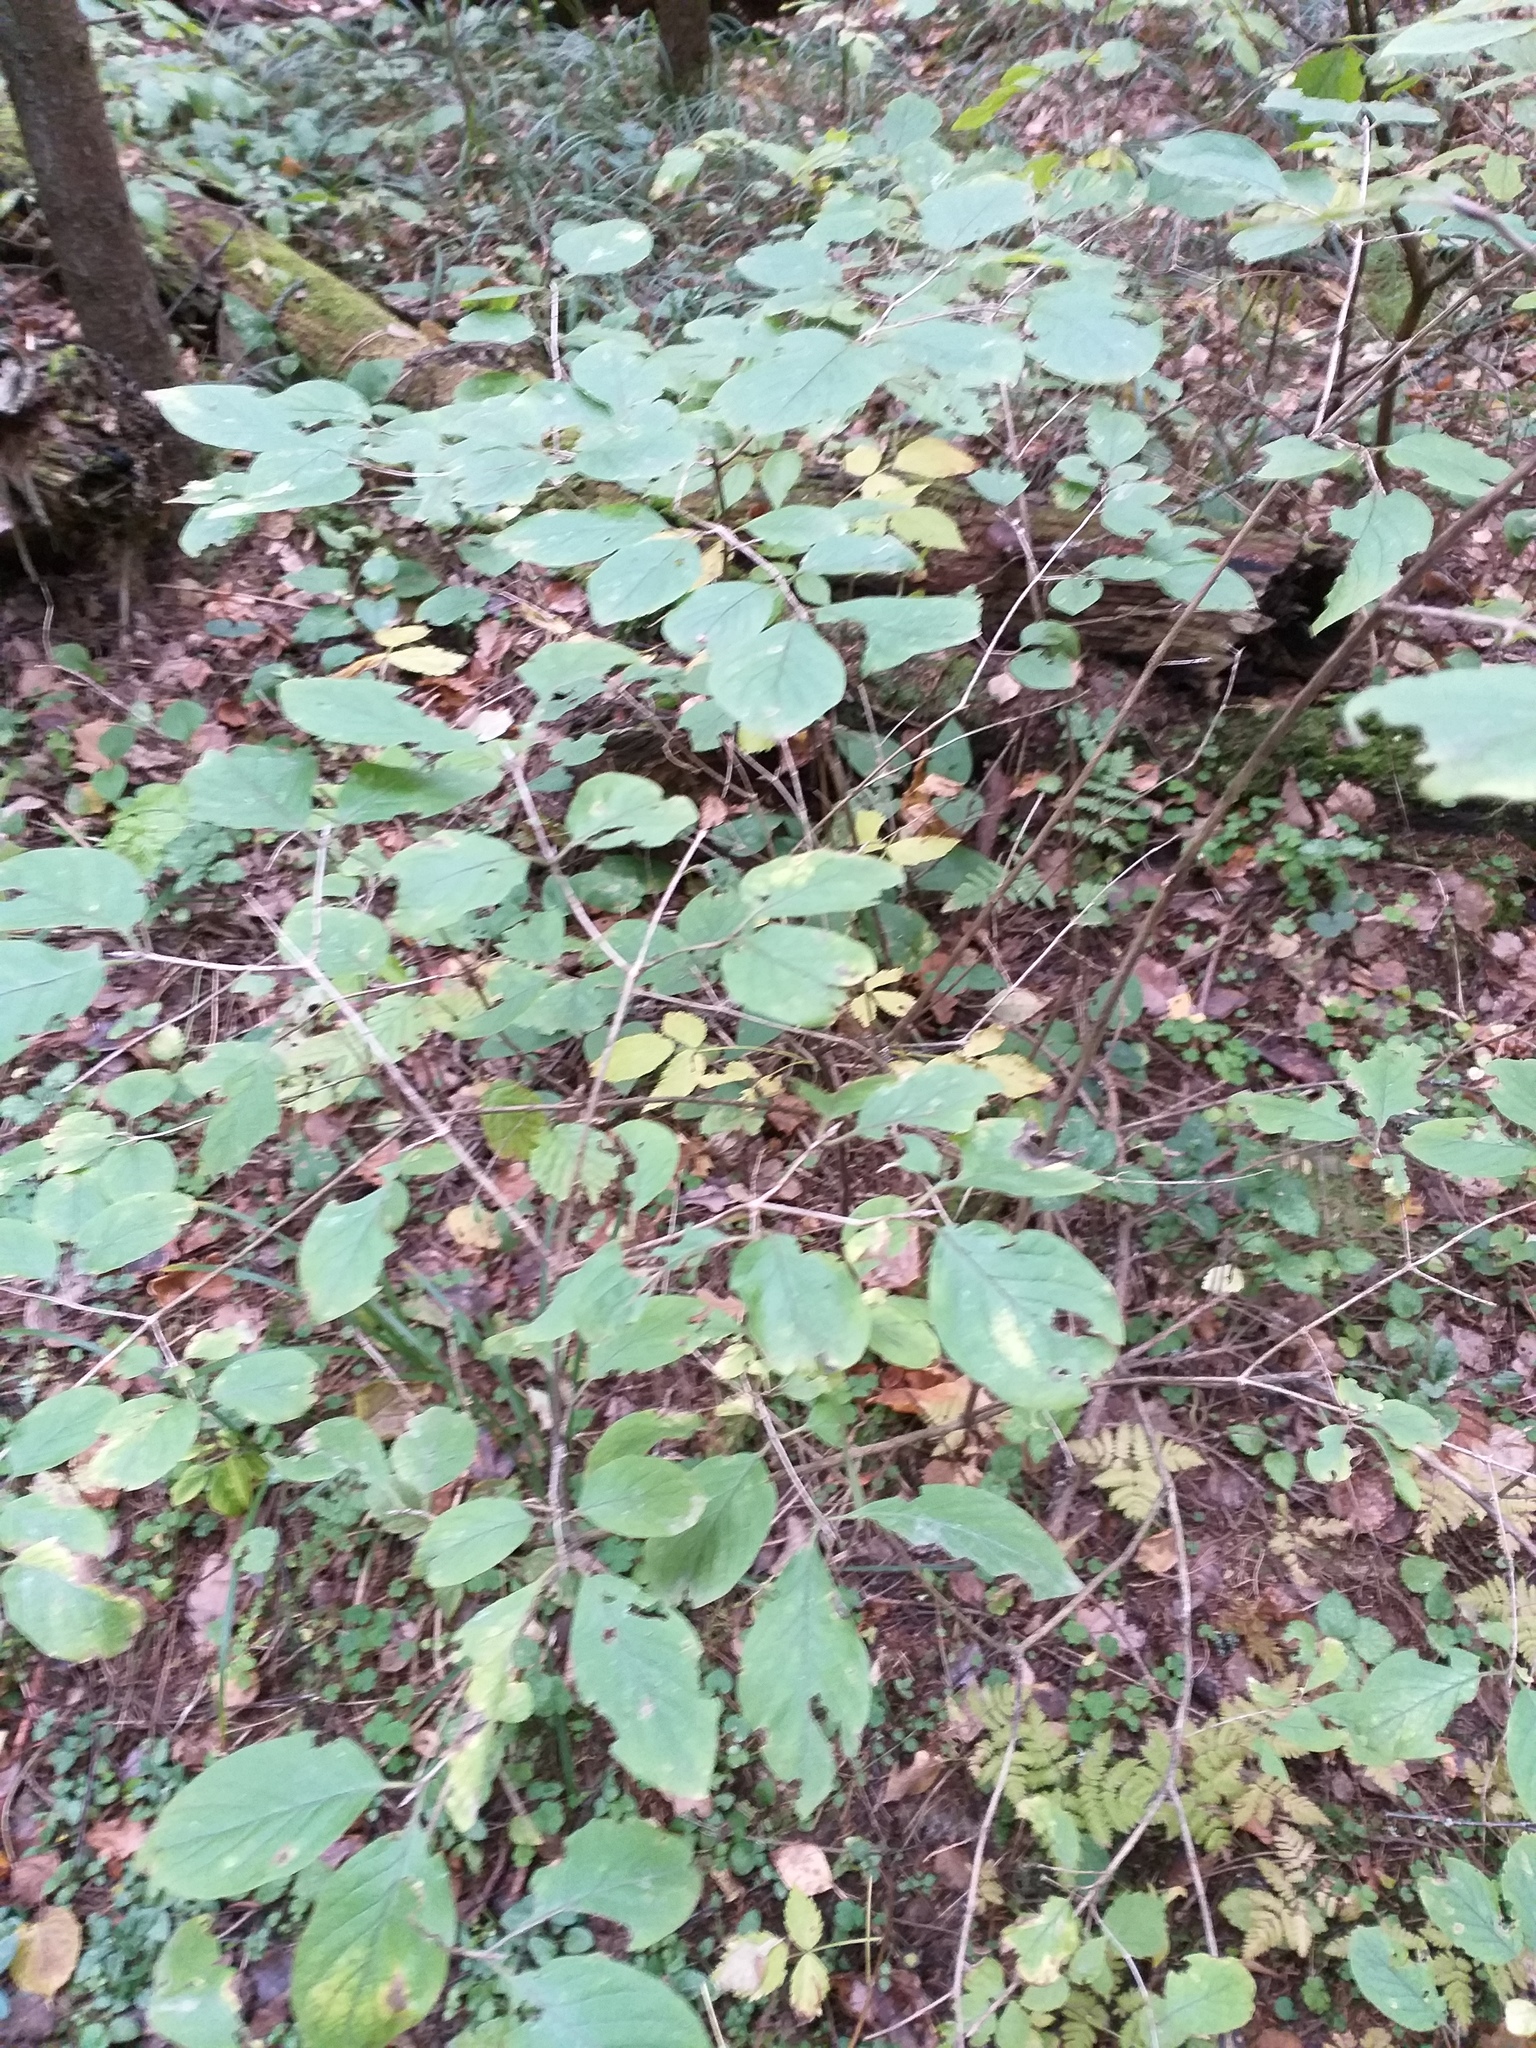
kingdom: Plantae
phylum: Tracheophyta
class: Magnoliopsida
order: Dipsacales
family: Caprifoliaceae
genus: Lonicera
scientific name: Lonicera xylosteum
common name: Fly honeysuckle
